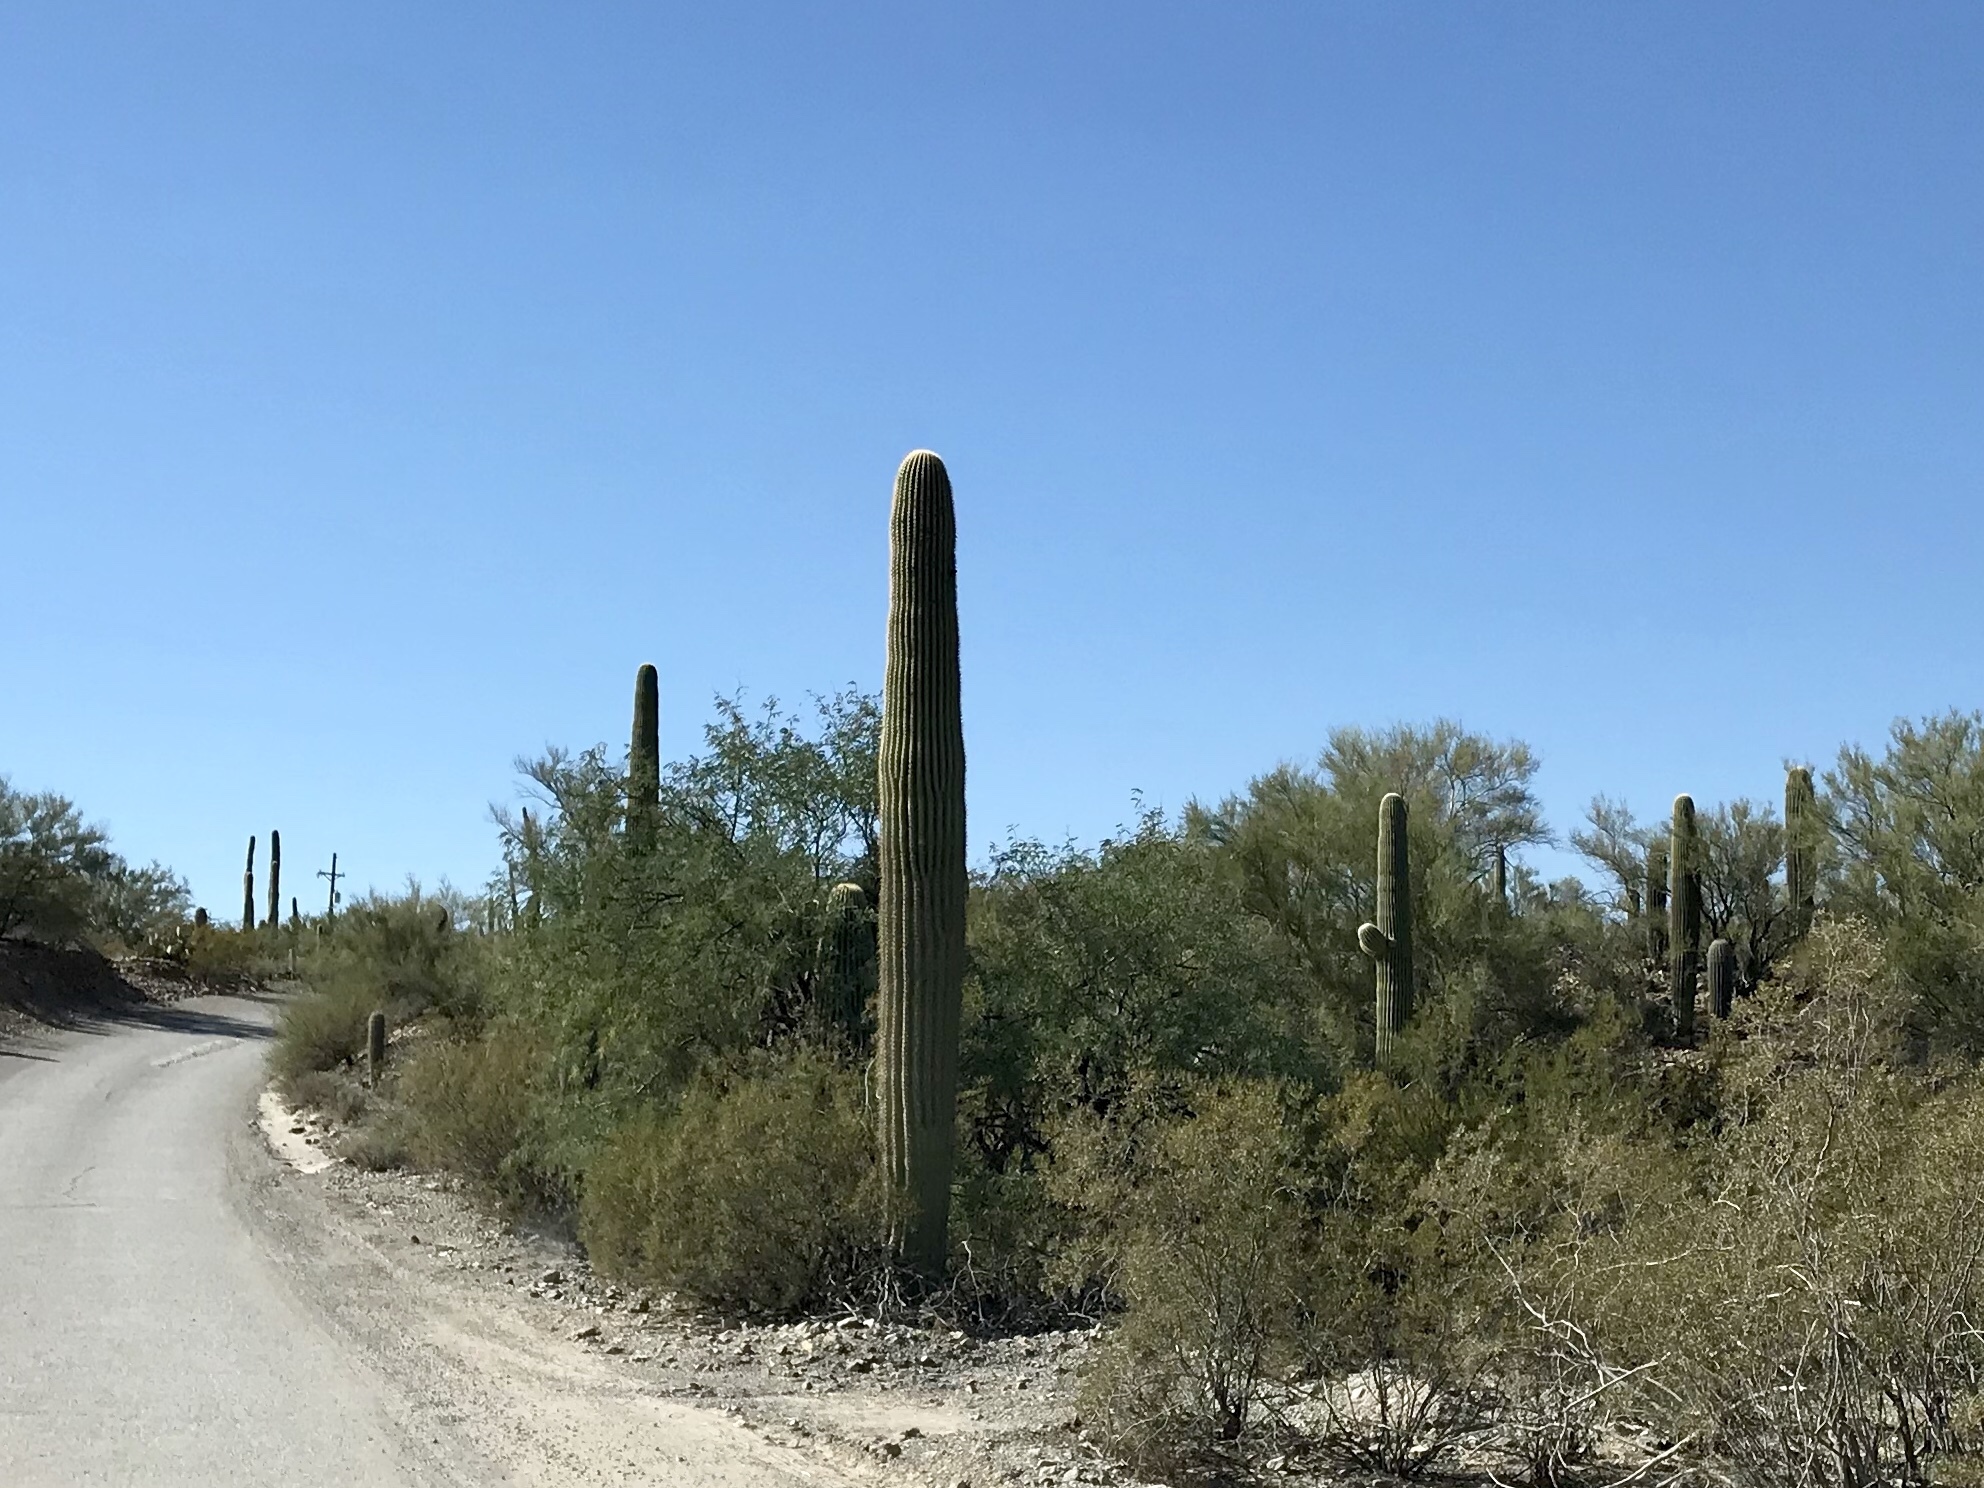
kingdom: Plantae
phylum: Tracheophyta
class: Magnoliopsida
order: Caryophyllales
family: Cactaceae
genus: Carnegiea
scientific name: Carnegiea gigantea
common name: Saguaro
